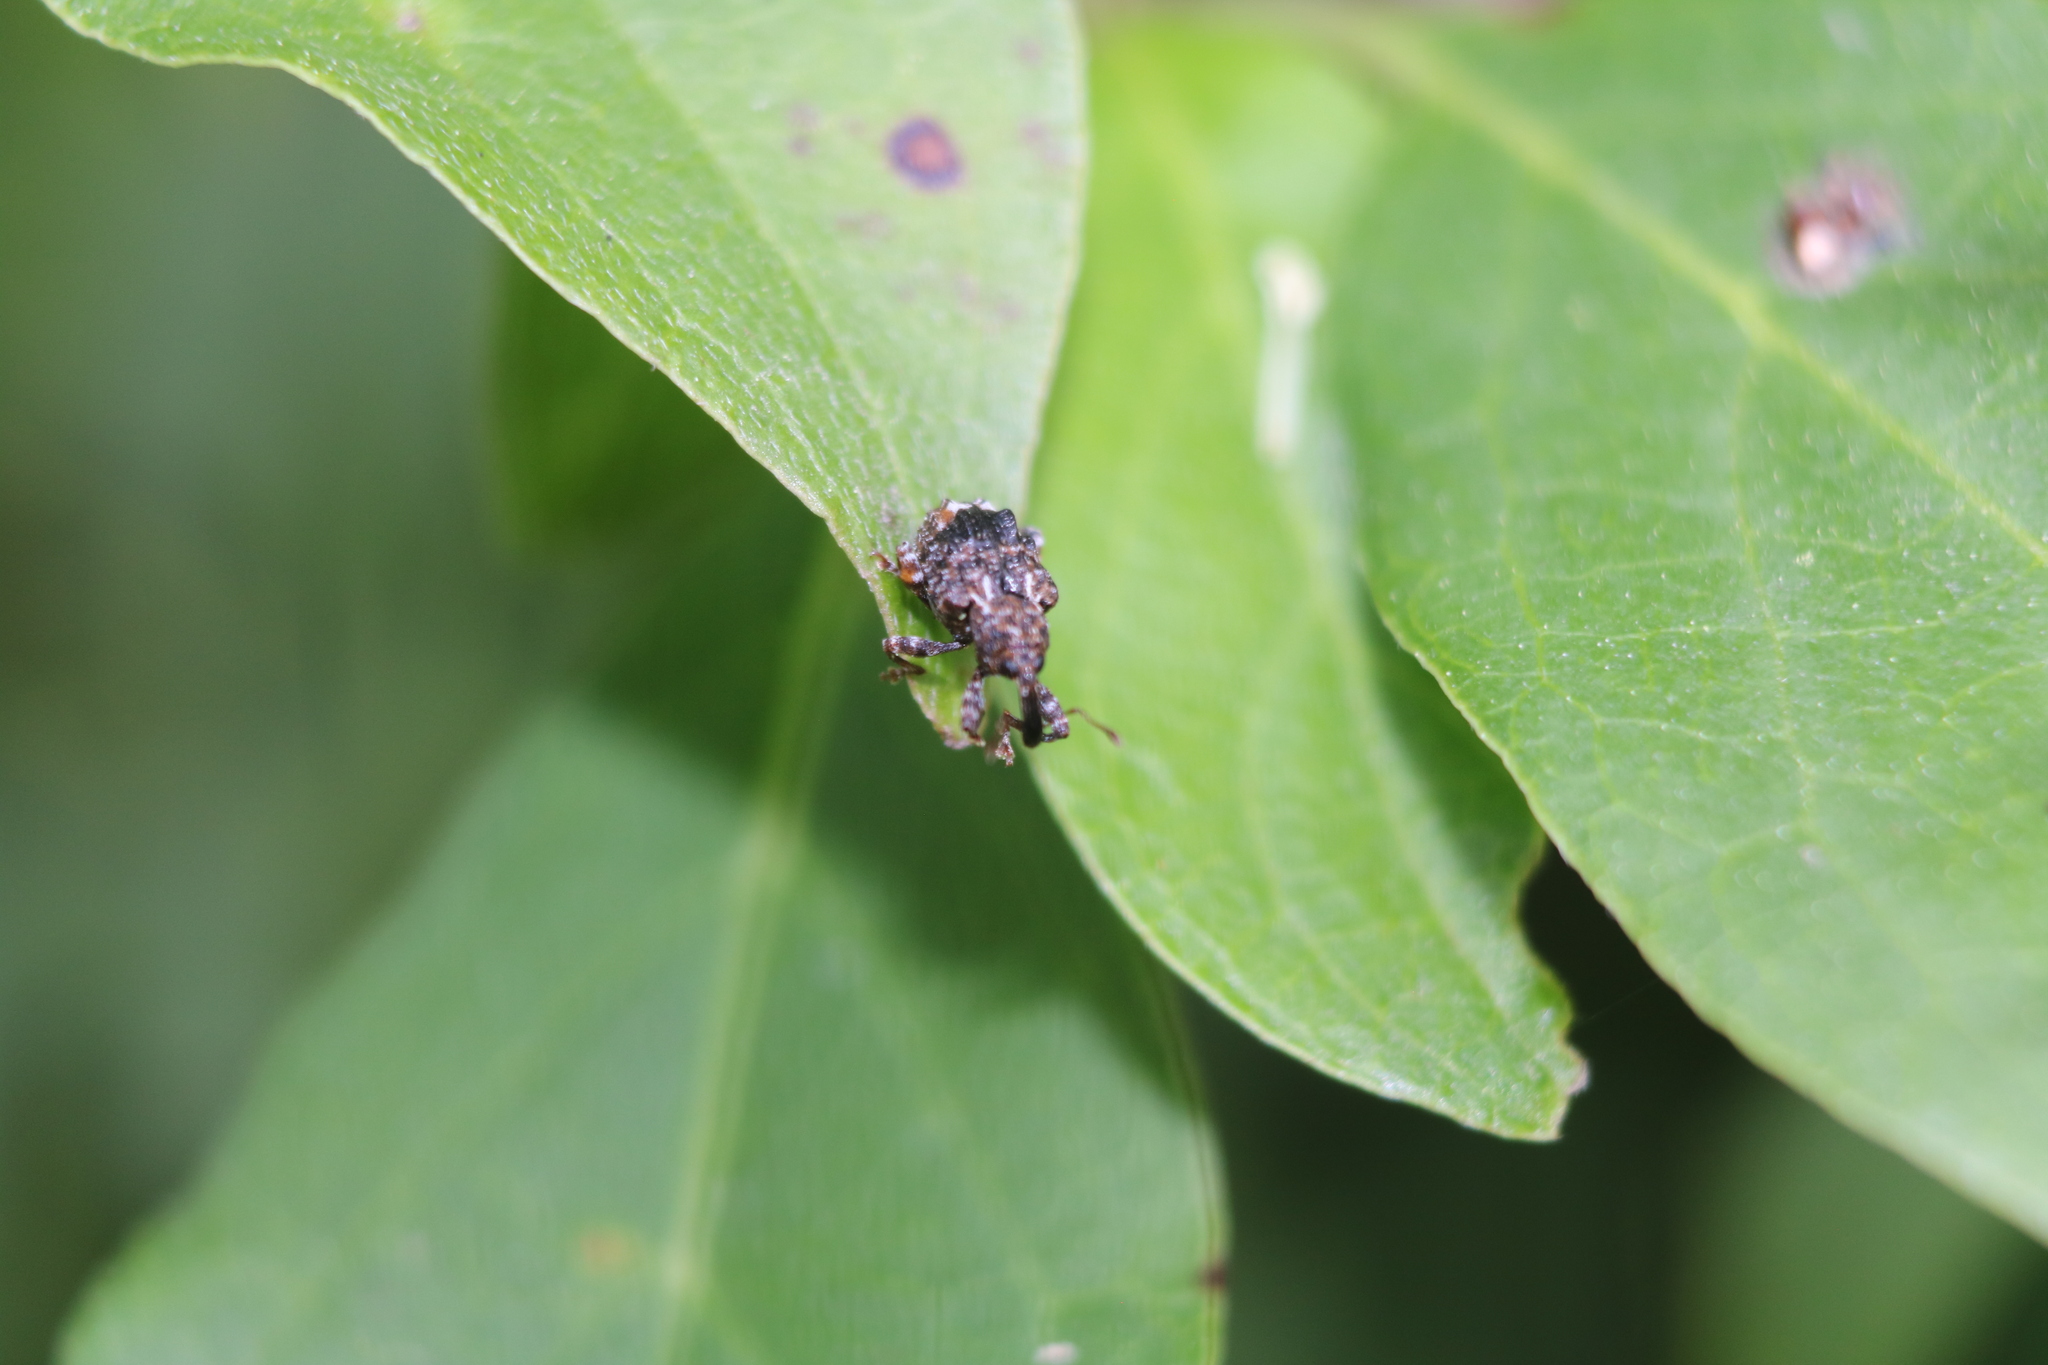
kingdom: Animalia
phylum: Arthropoda
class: Insecta
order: Coleoptera
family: Curculionidae
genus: Conotrachelus
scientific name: Conotrachelus nenuphar
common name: Plum curculio
